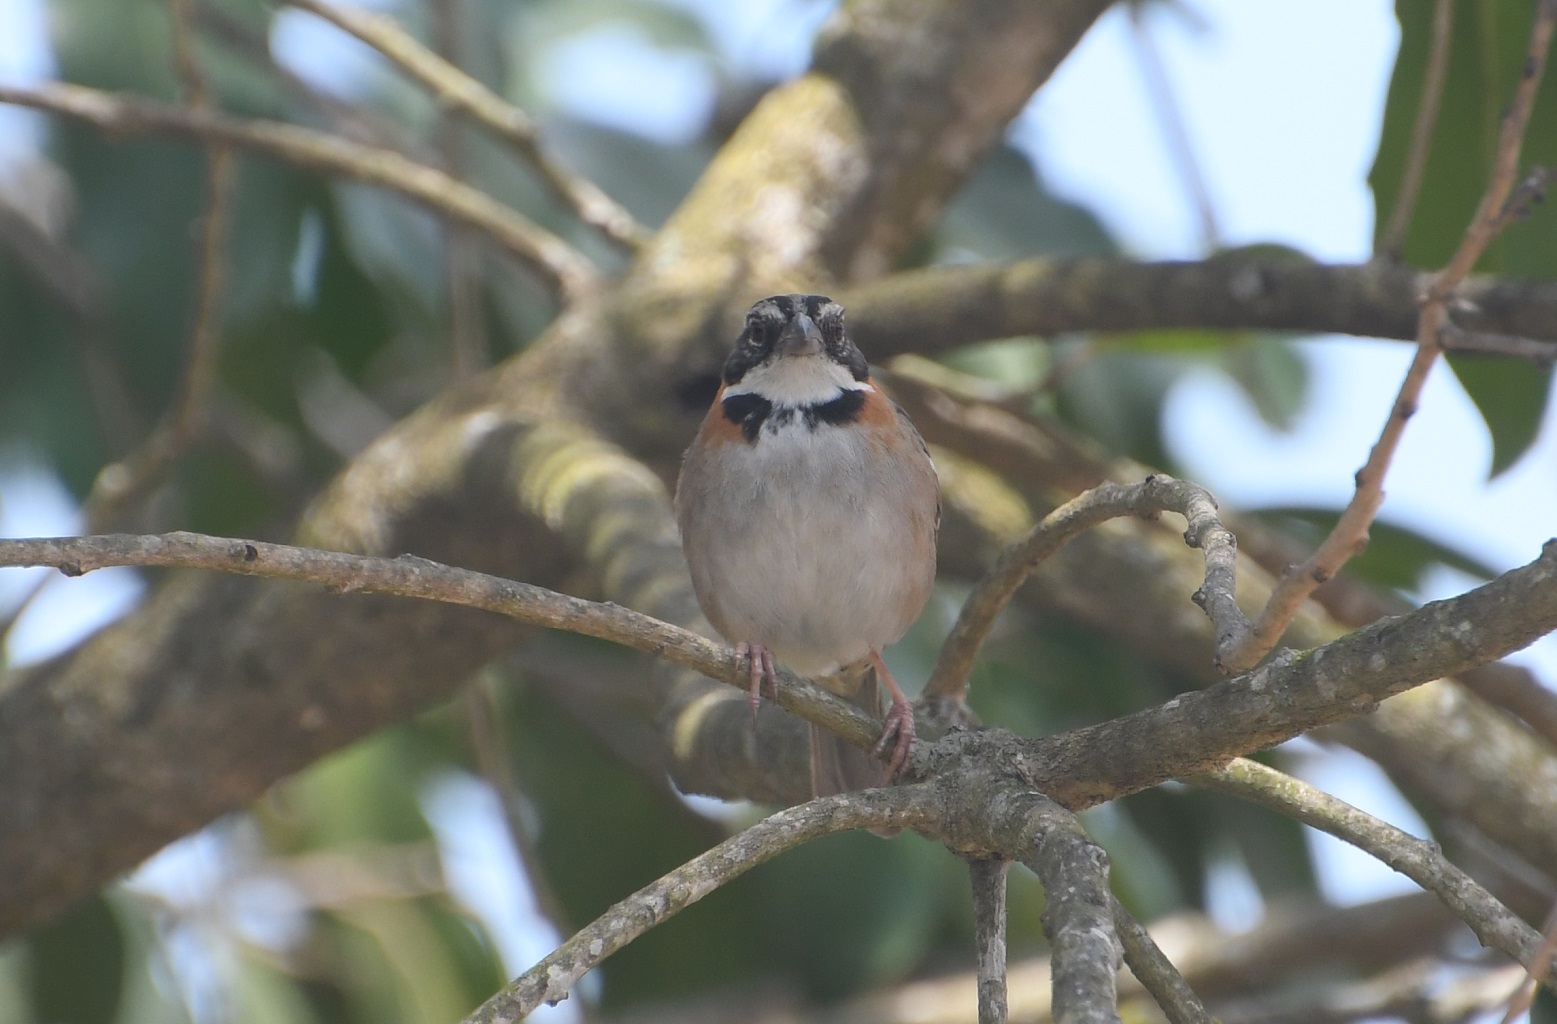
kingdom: Animalia
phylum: Chordata
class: Aves
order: Passeriformes
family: Passerellidae
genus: Zonotrichia
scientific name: Zonotrichia capensis
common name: Rufous-collared sparrow
